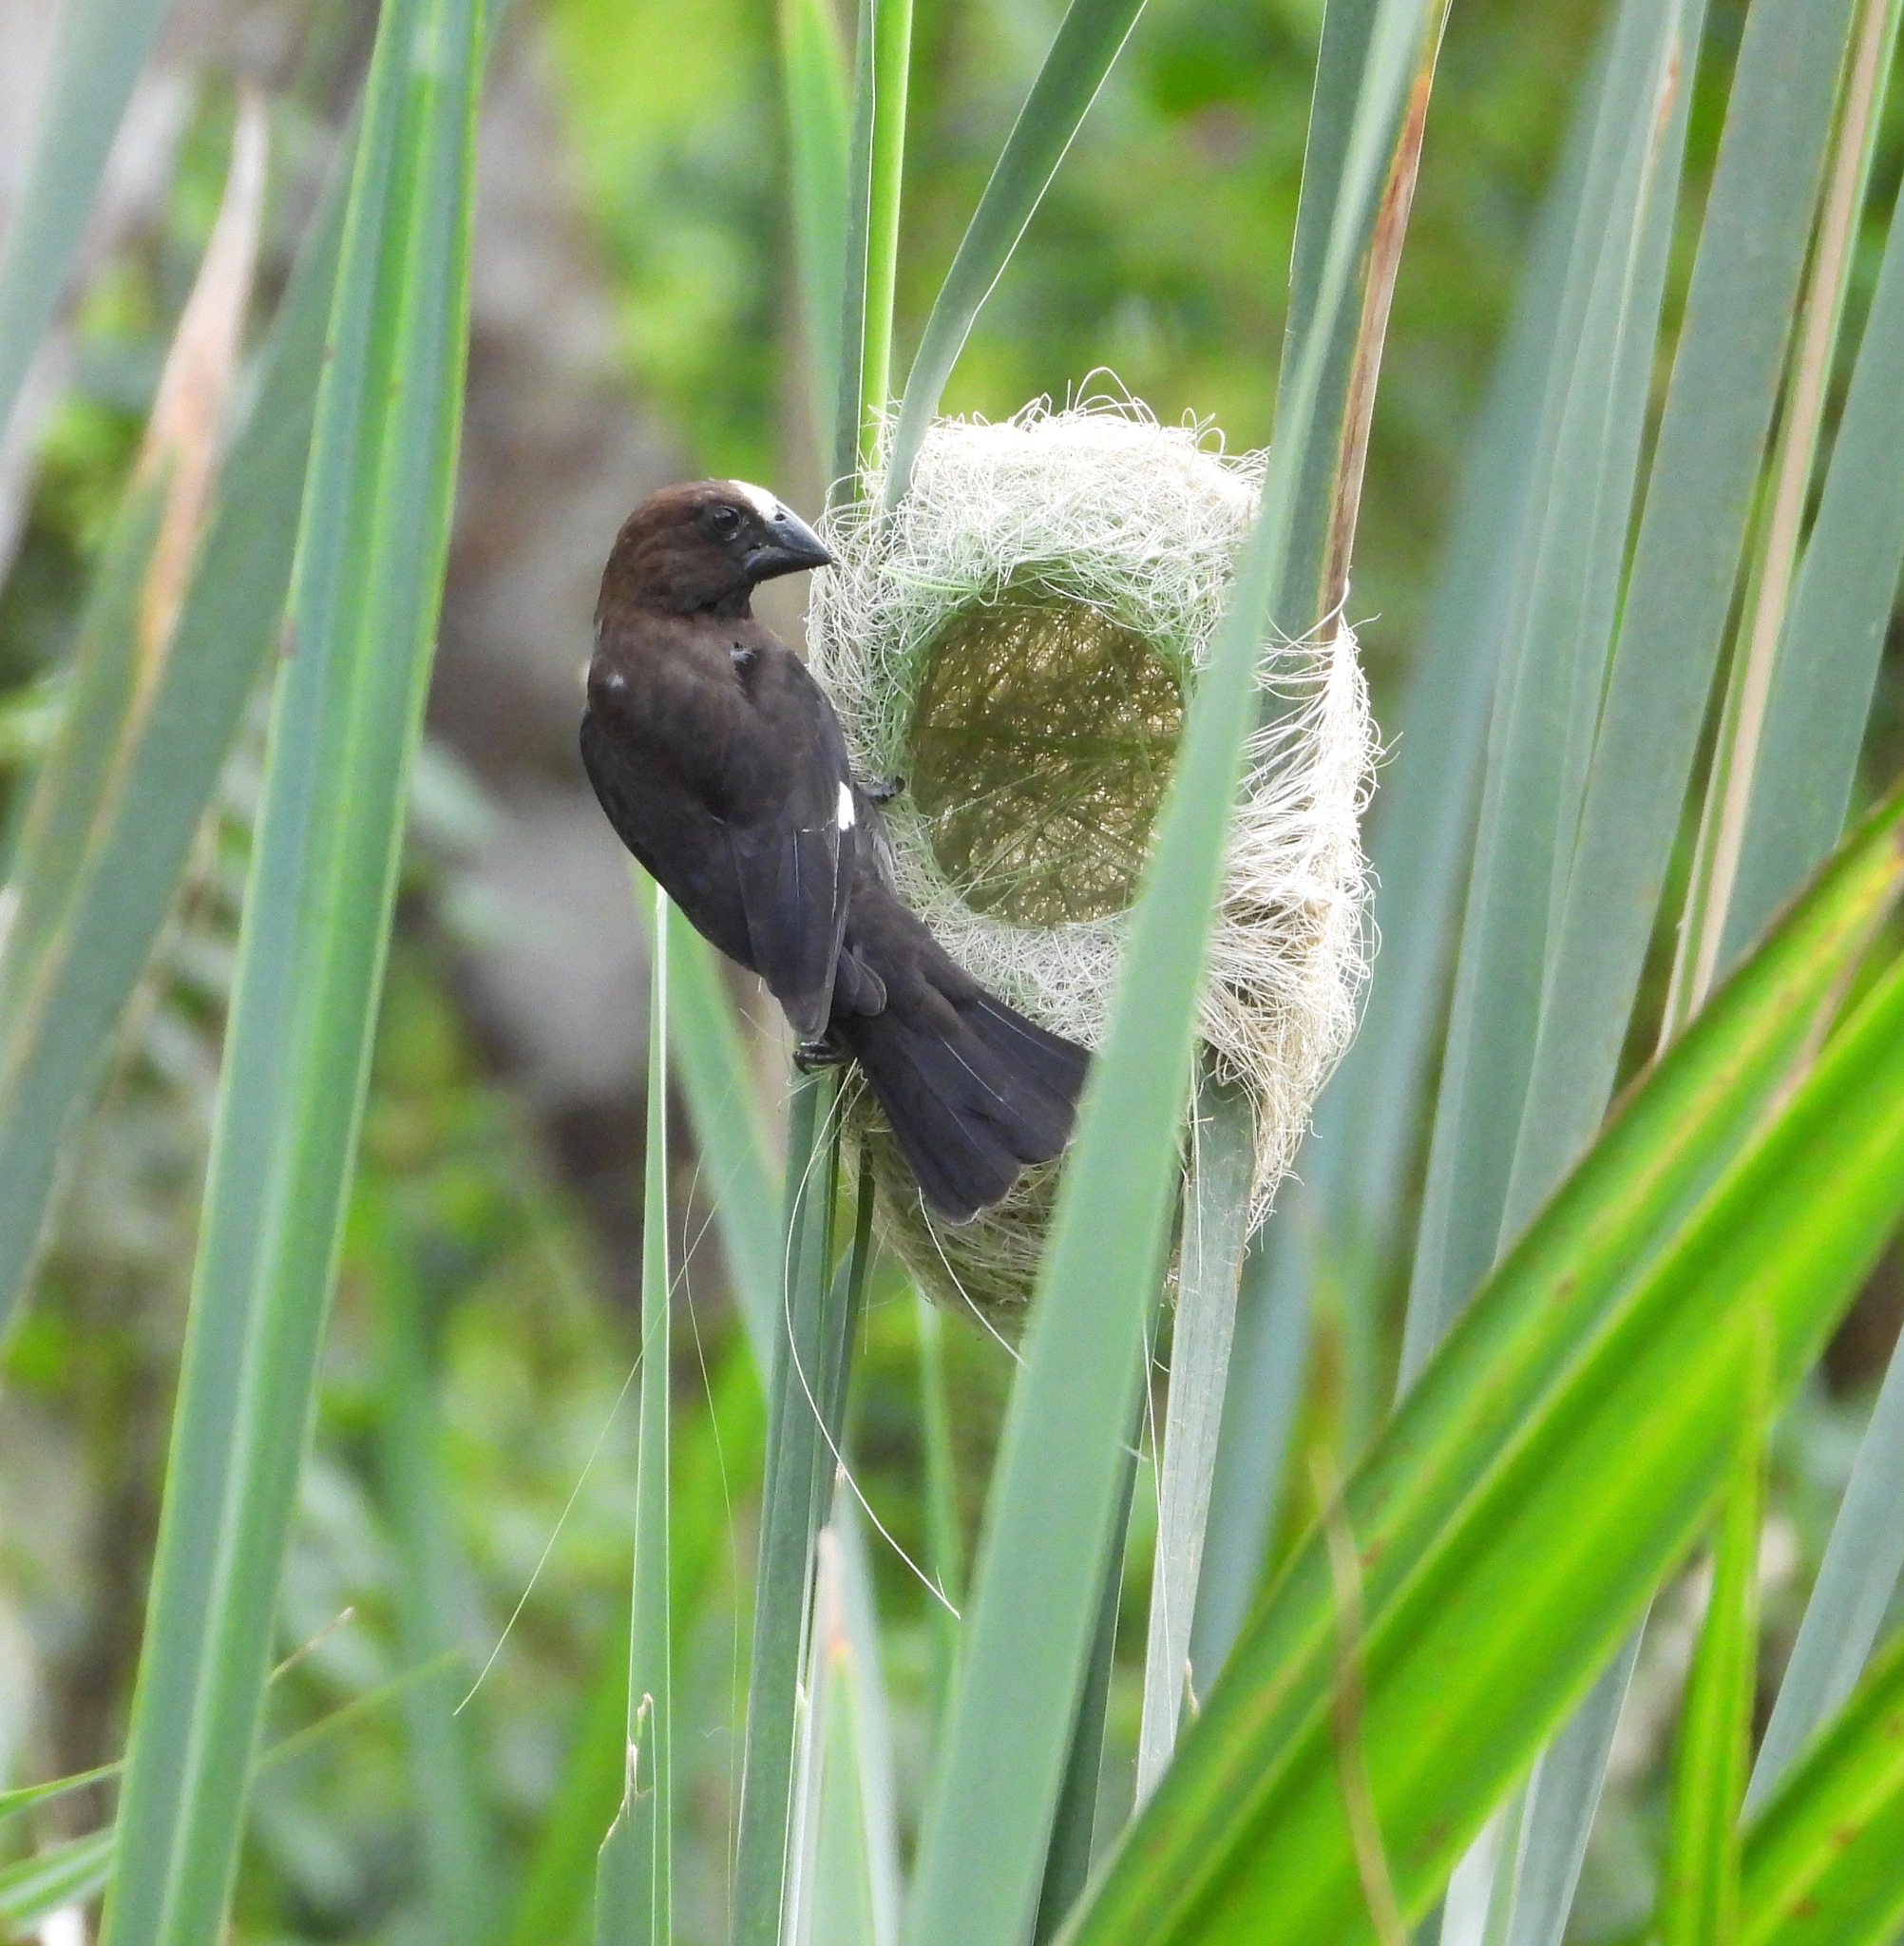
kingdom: Animalia
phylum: Chordata
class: Aves
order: Passeriformes
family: Ploceidae
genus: Amblyospiza
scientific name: Amblyospiza albifrons
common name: Thick-billed weaver
